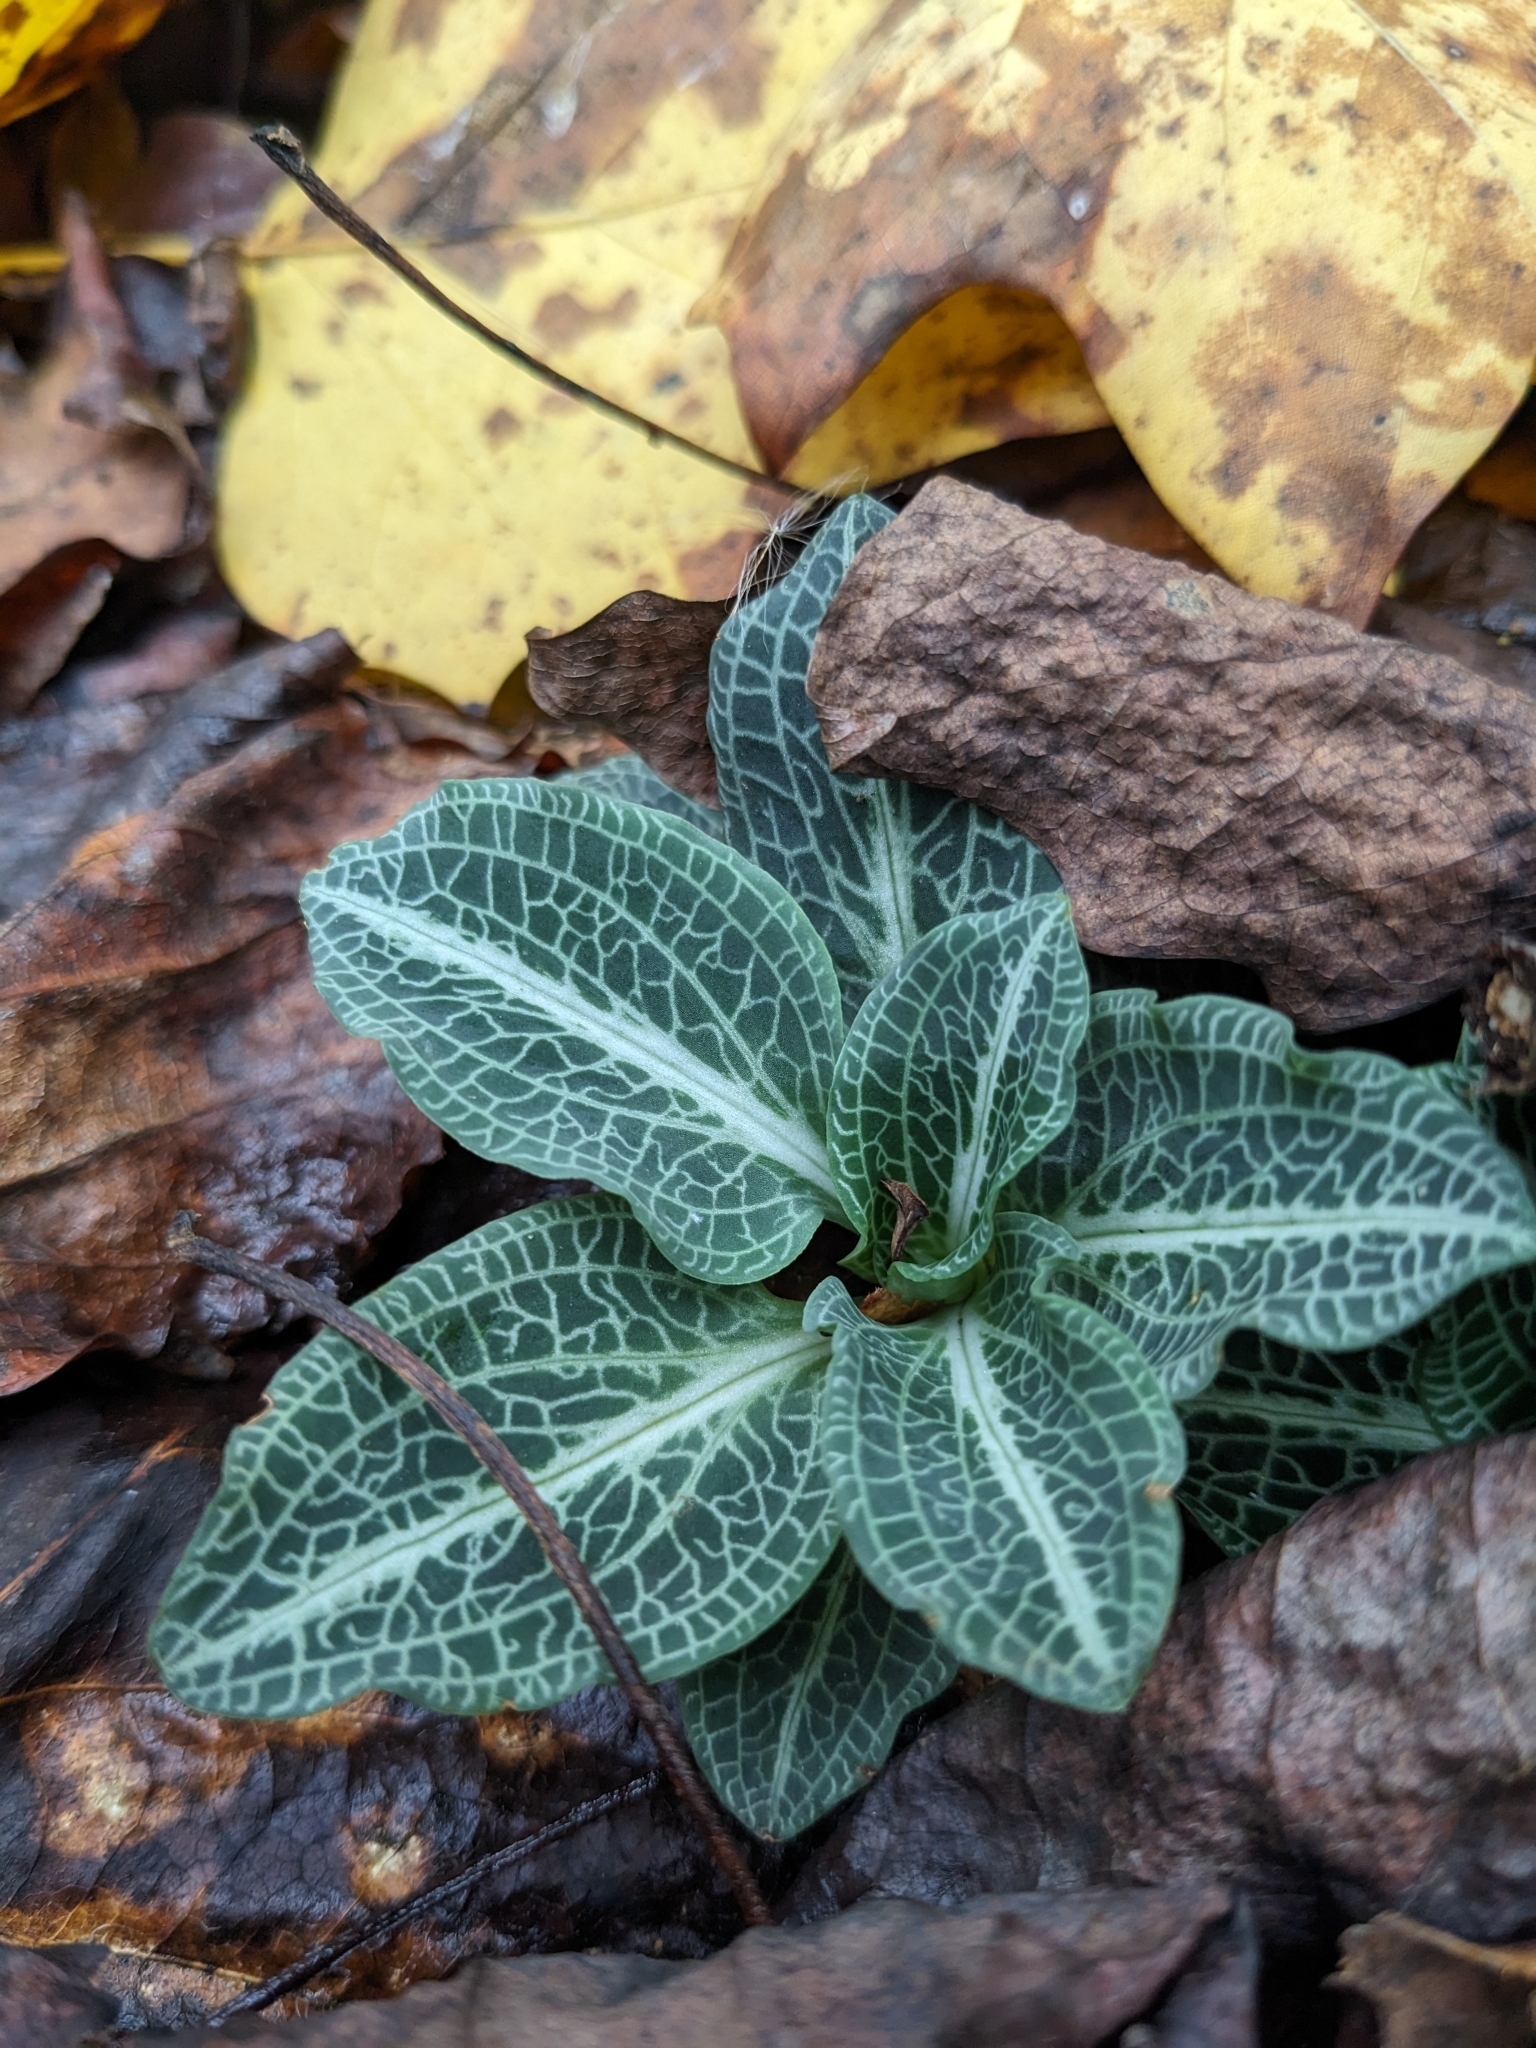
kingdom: Plantae
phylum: Tracheophyta
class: Liliopsida
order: Asparagales
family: Orchidaceae
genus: Goodyera
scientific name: Goodyera pubescens
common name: Downy rattlesnake-plantain
